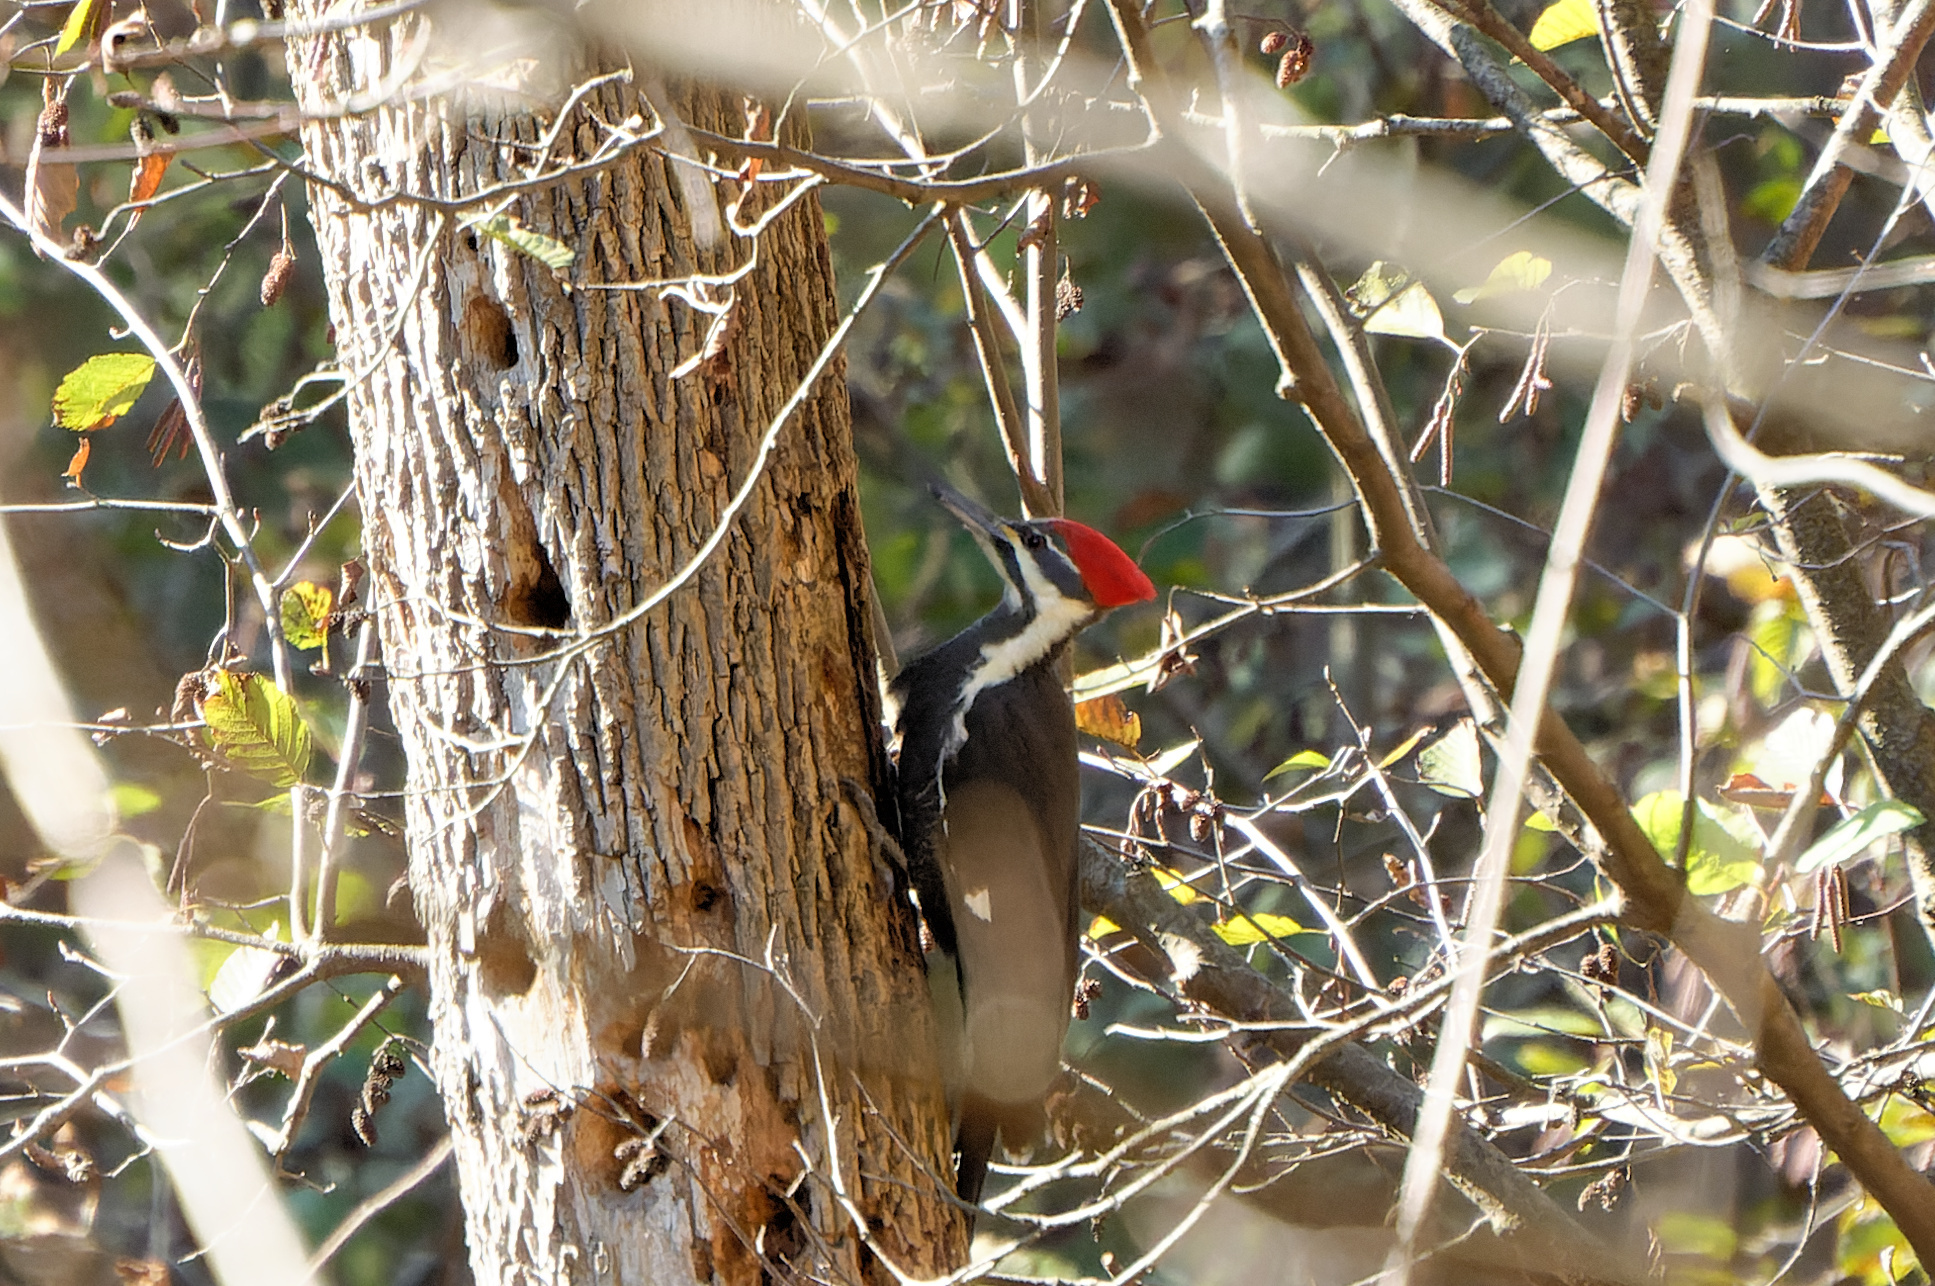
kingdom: Animalia
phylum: Chordata
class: Aves
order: Piciformes
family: Picidae
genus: Dryocopus
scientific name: Dryocopus pileatus
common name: Pileated woodpecker
